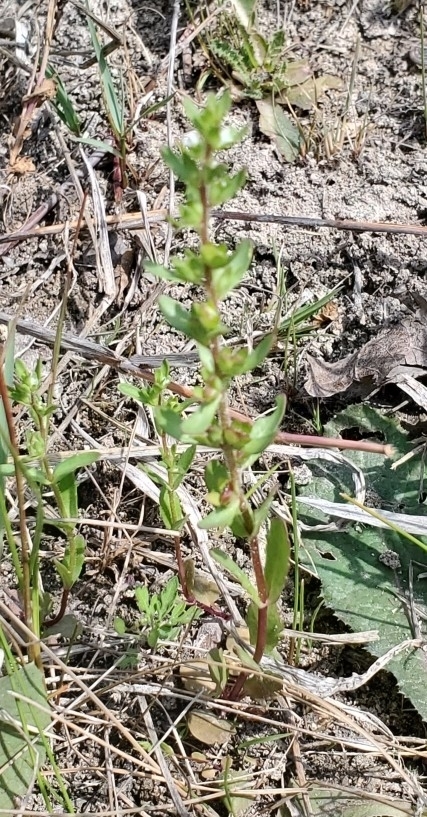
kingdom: Plantae
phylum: Tracheophyta
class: Magnoliopsida
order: Lamiales
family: Plantaginaceae
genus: Veronica
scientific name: Veronica peregrina
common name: Neckweed
